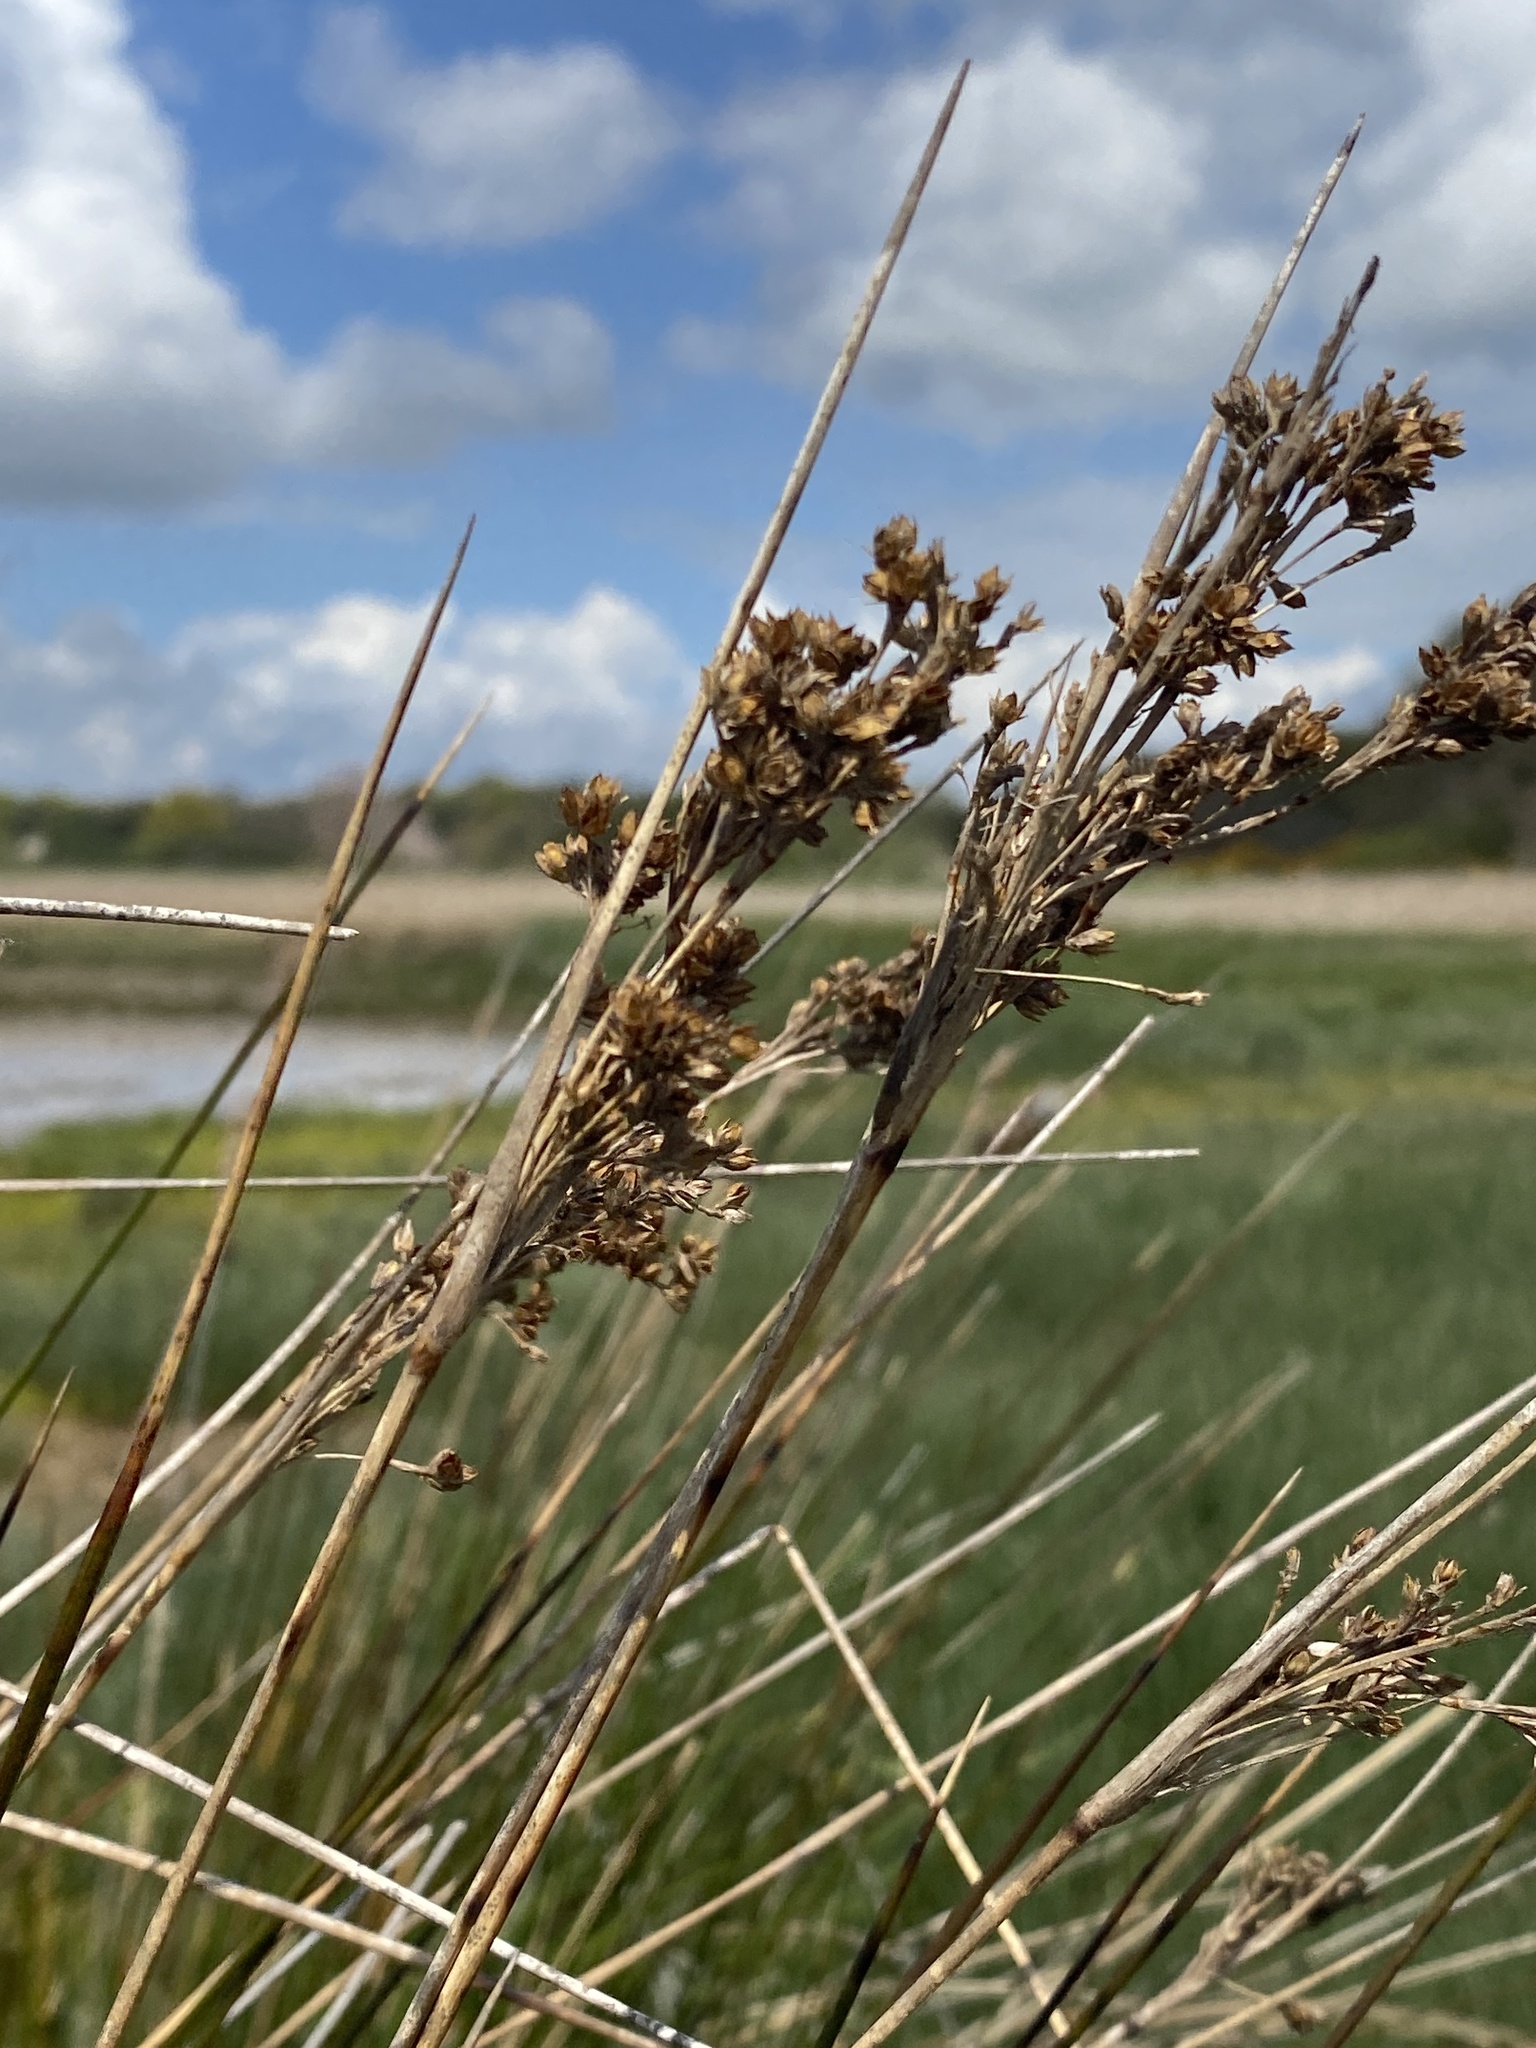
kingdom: Plantae
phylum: Tracheophyta
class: Liliopsida
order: Poales
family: Juncaceae
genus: Juncus
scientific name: Juncus maritimus
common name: Sea rush
